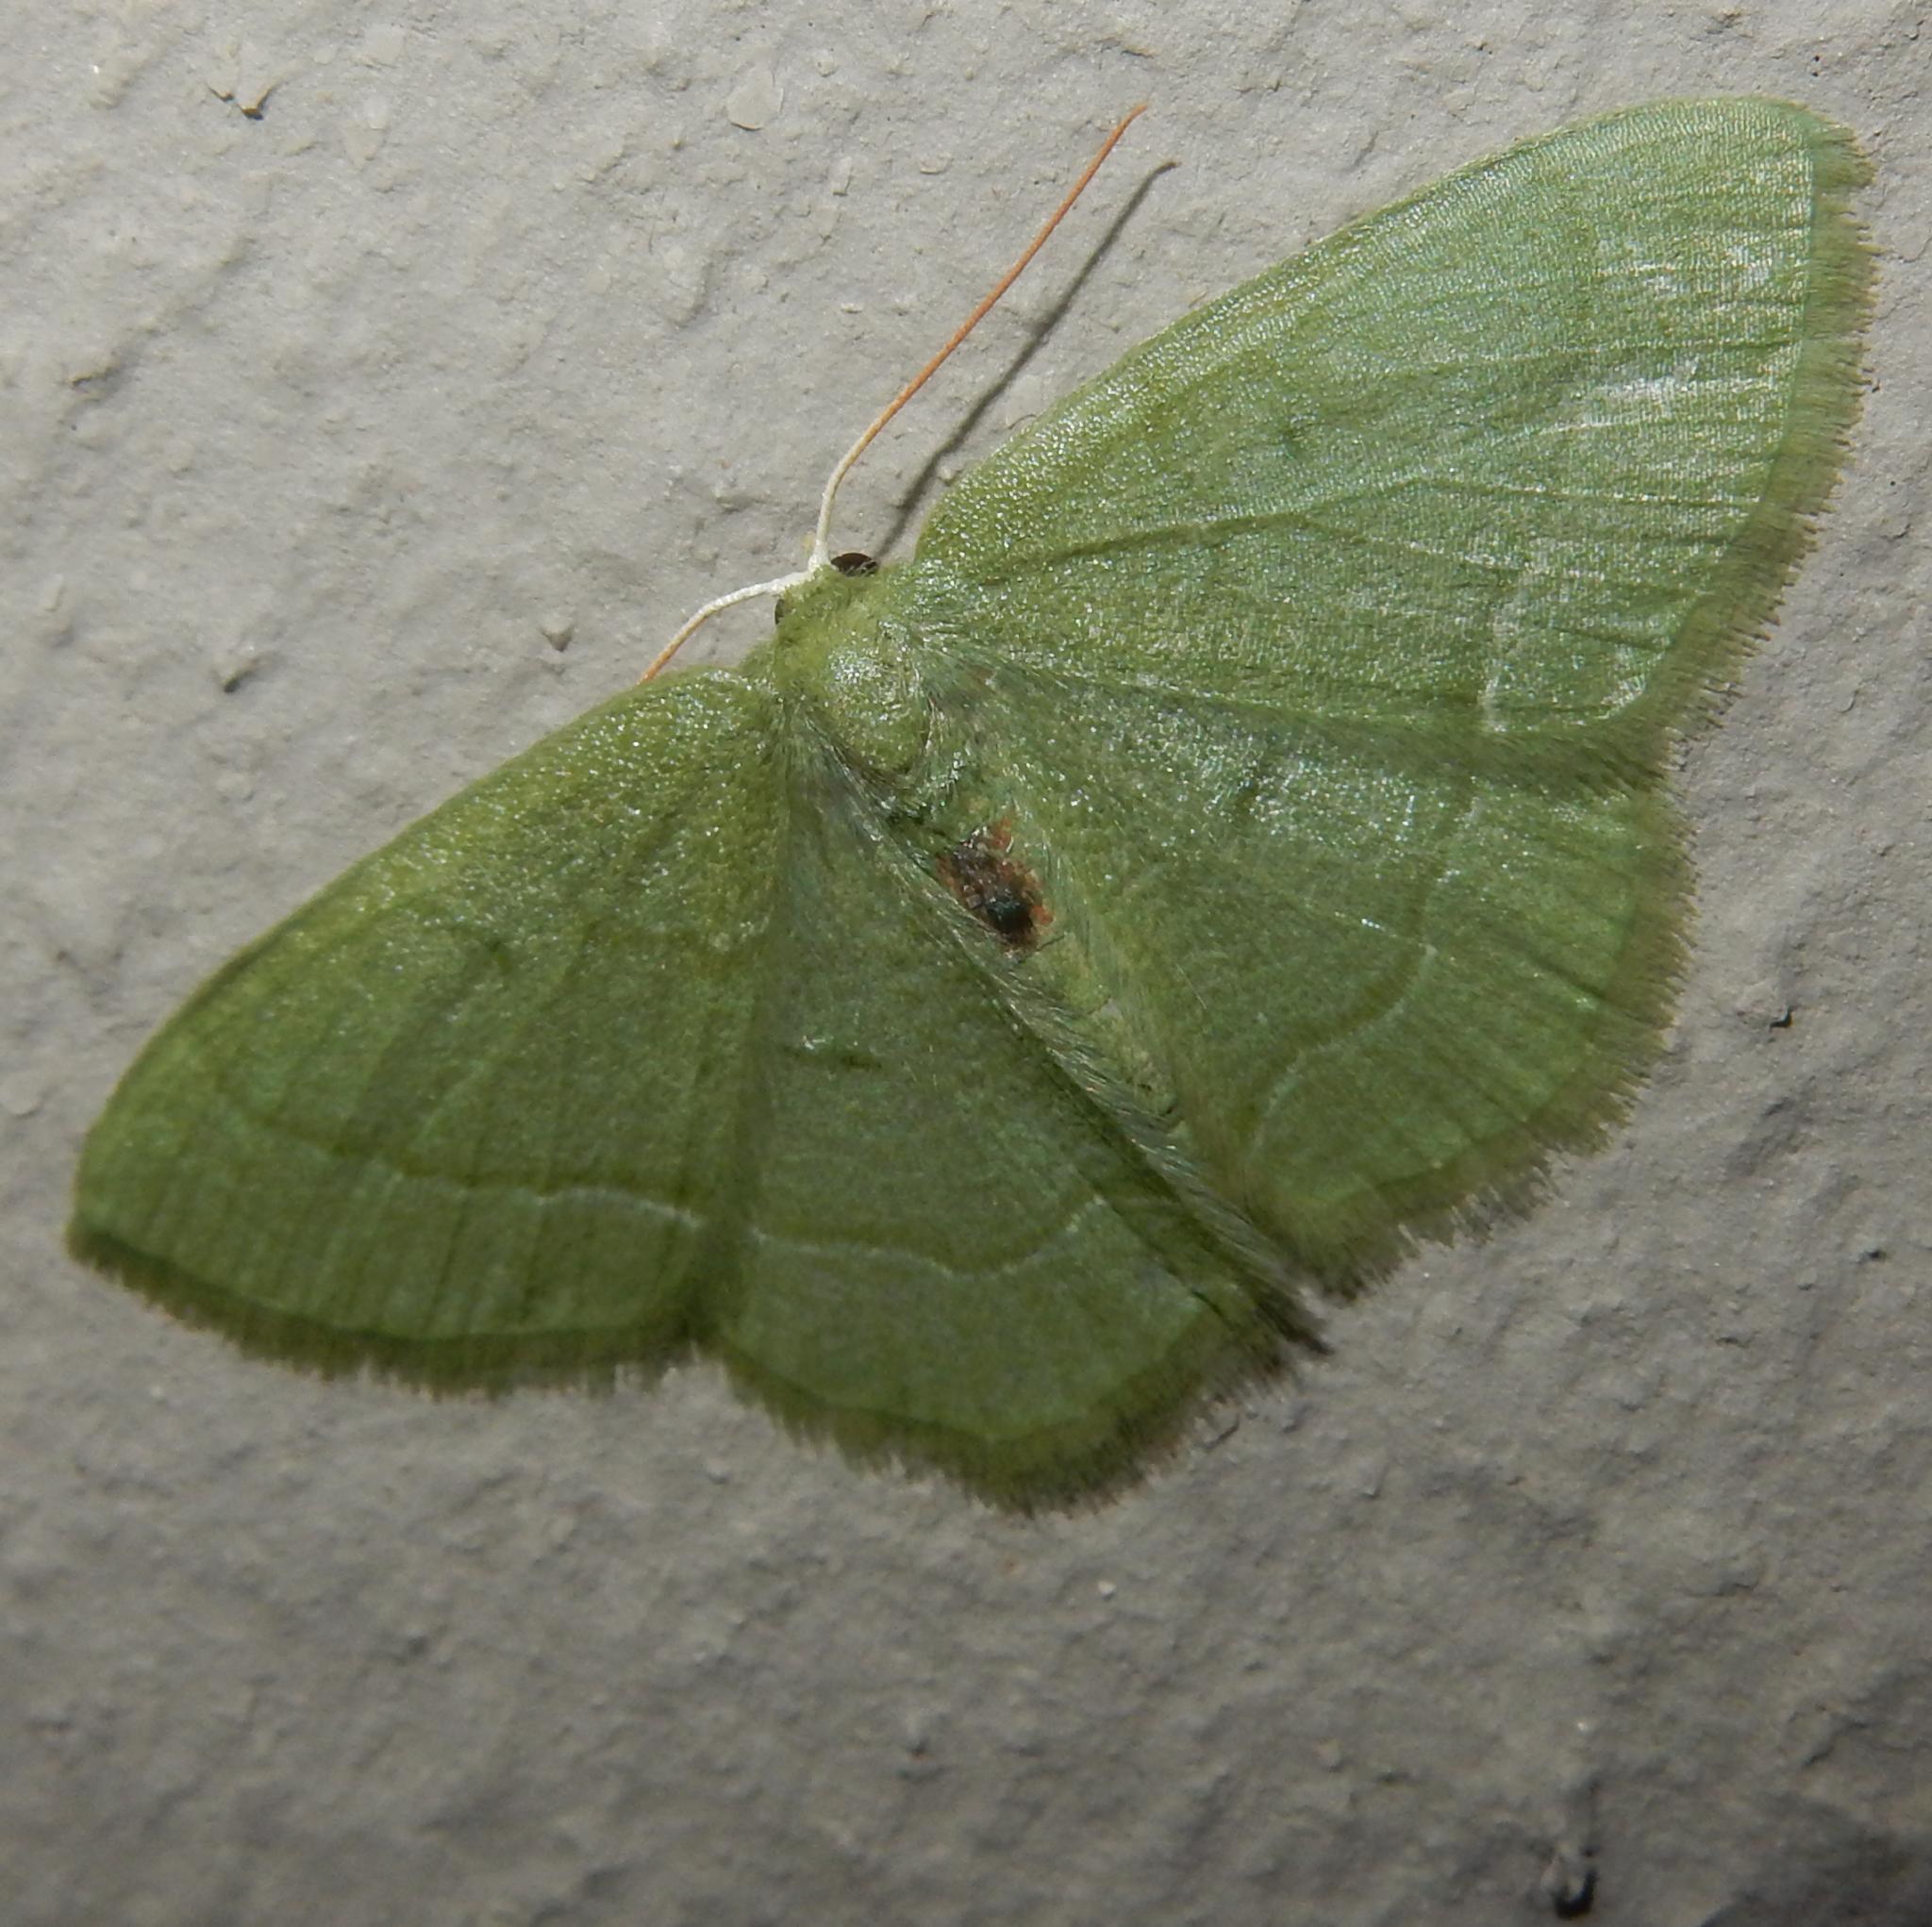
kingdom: Animalia
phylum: Arthropoda
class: Insecta
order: Lepidoptera
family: Geometridae
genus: Chlorissa
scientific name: Chlorissa attenuata
